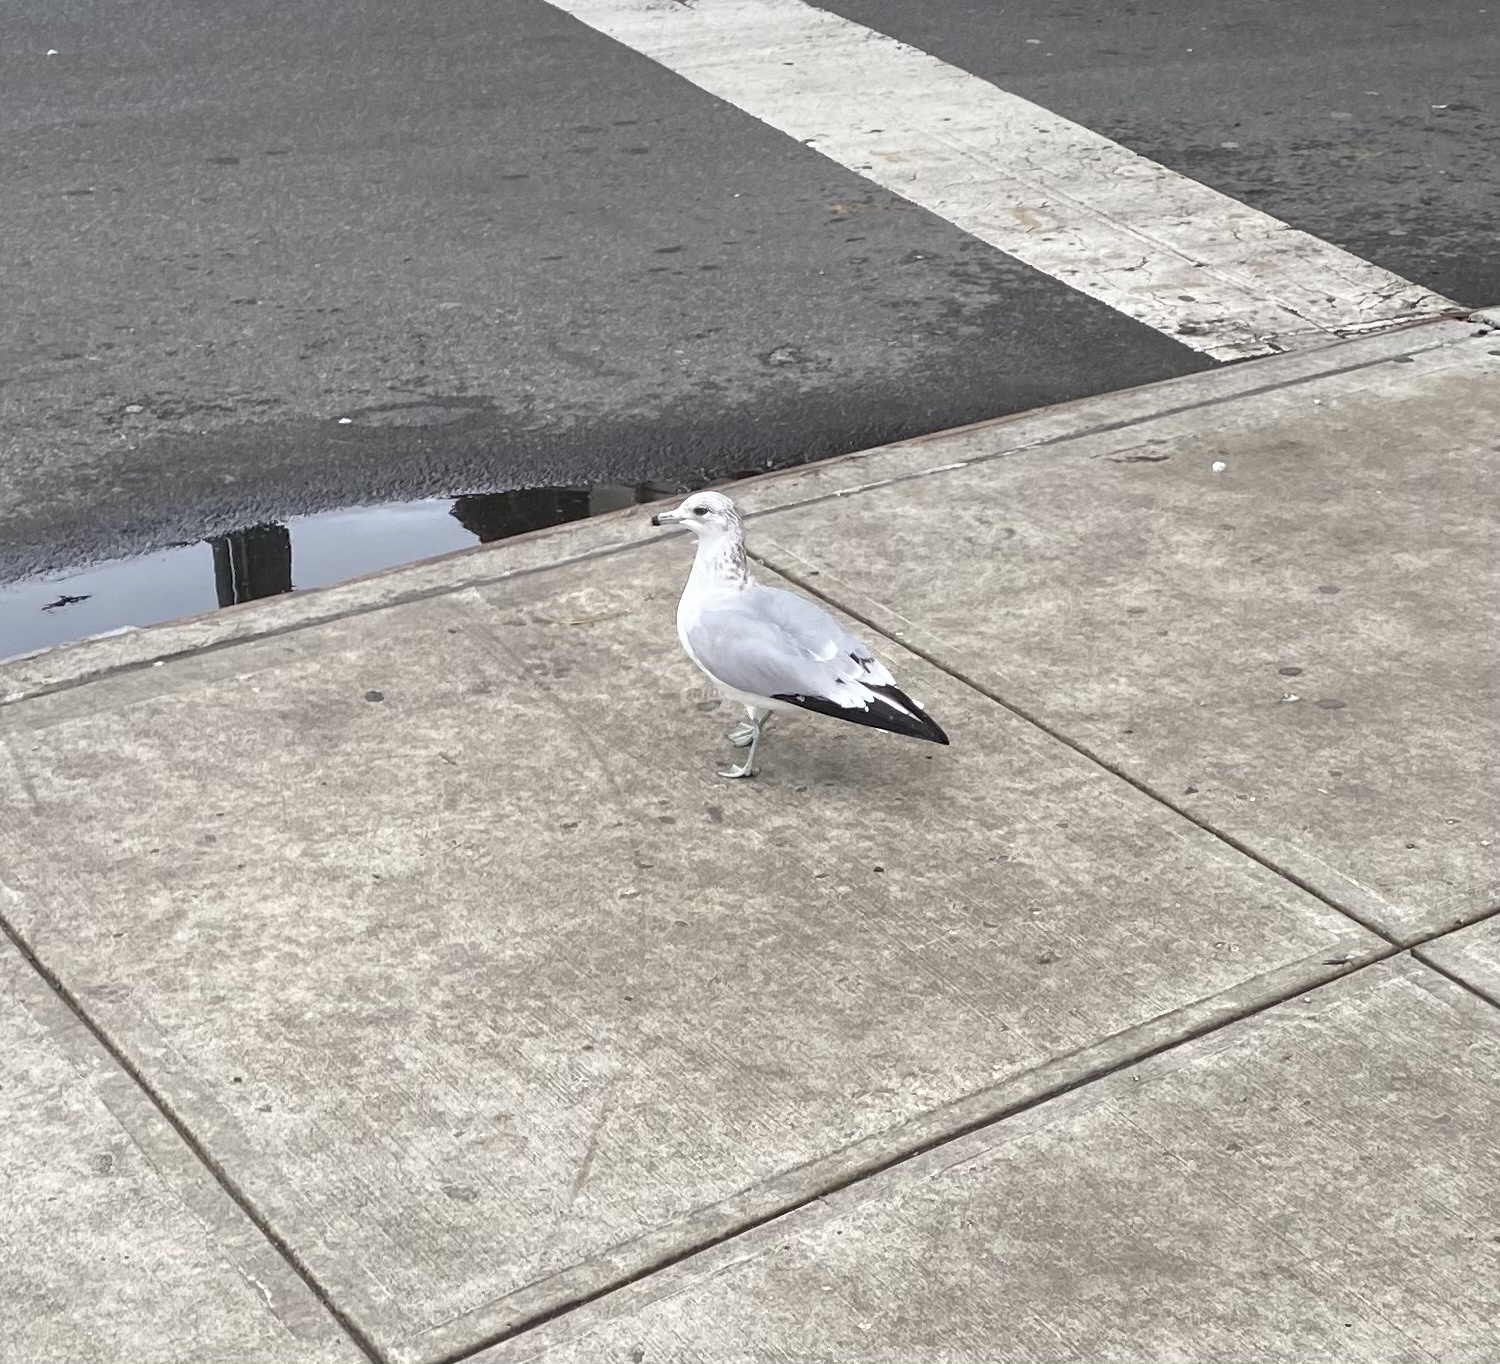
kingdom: Animalia
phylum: Chordata
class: Aves
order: Charadriiformes
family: Laridae
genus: Larus
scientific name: Larus delawarensis
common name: Ring-billed gull
